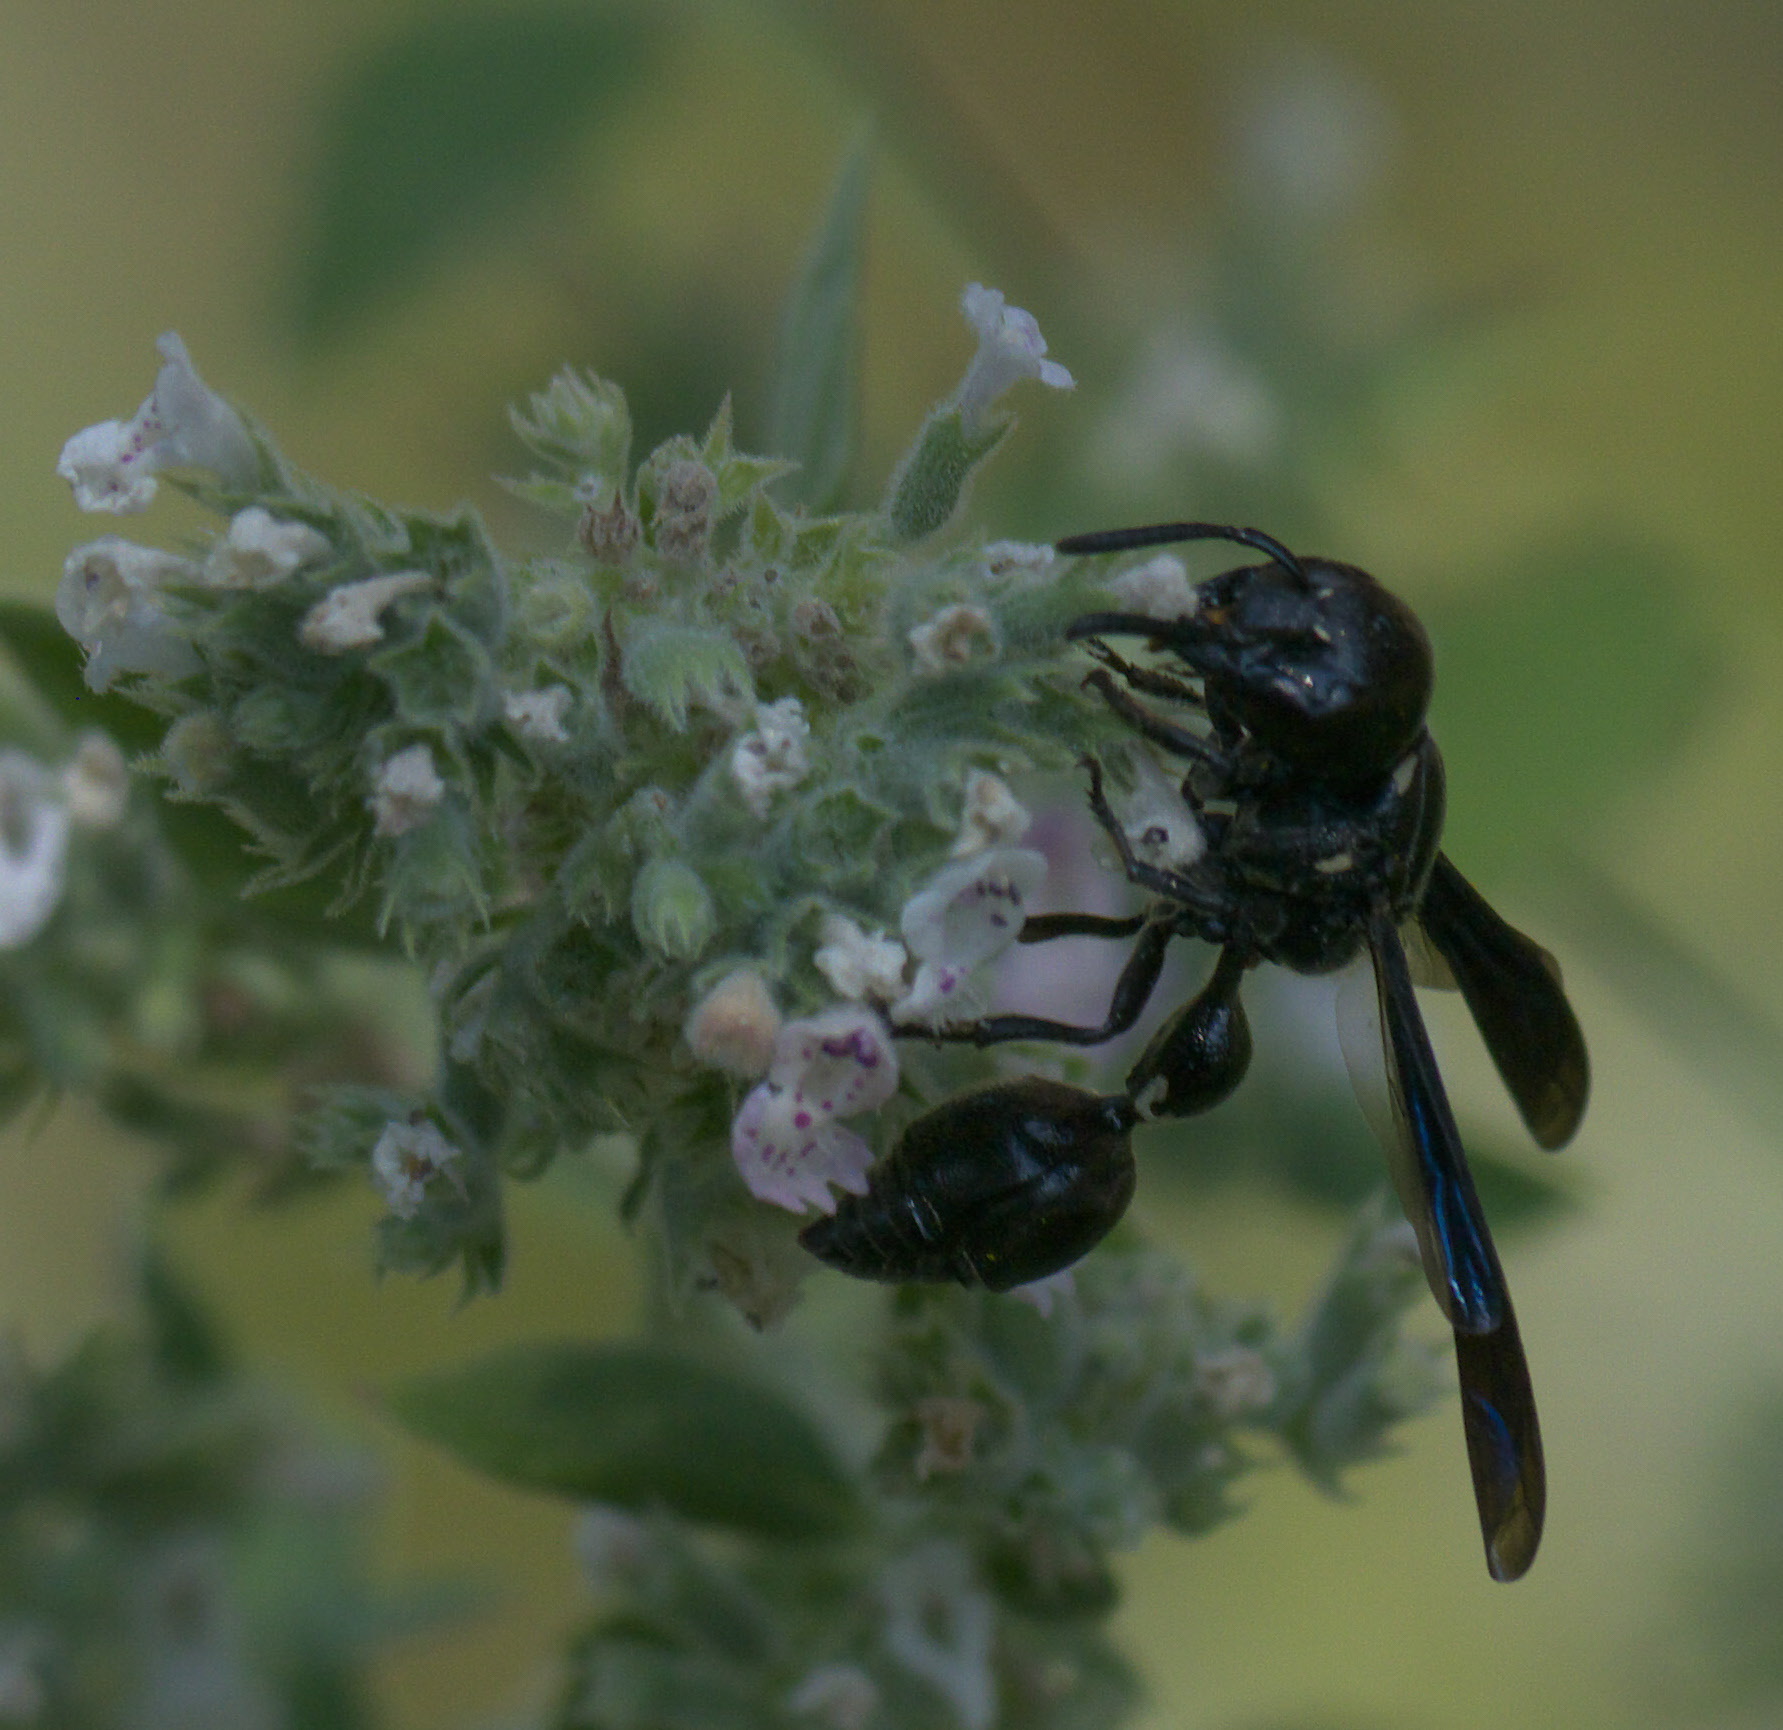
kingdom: Animalia
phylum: Arthropoda
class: Insecta
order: Hymenoptera
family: Eumenidae
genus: Zethus
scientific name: Zethus spinipes
